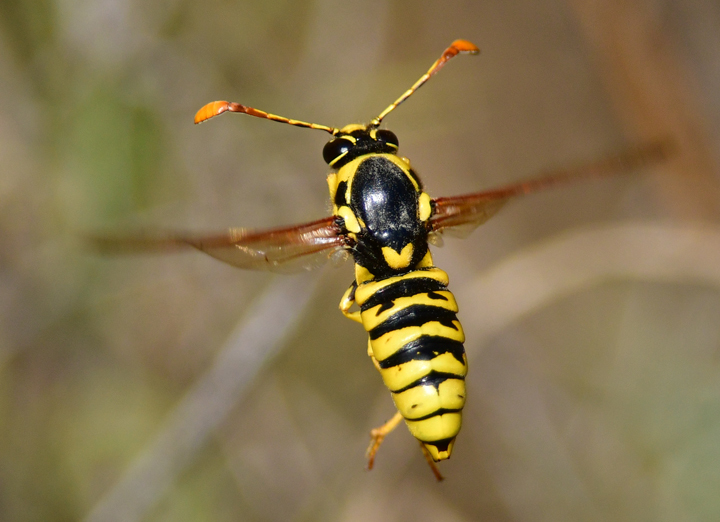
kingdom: Animalia
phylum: Arthropoda
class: Insecta
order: Hymenoptera
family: Masaridae
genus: Pseudomasaris
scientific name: Pseudomasaris vespoides
